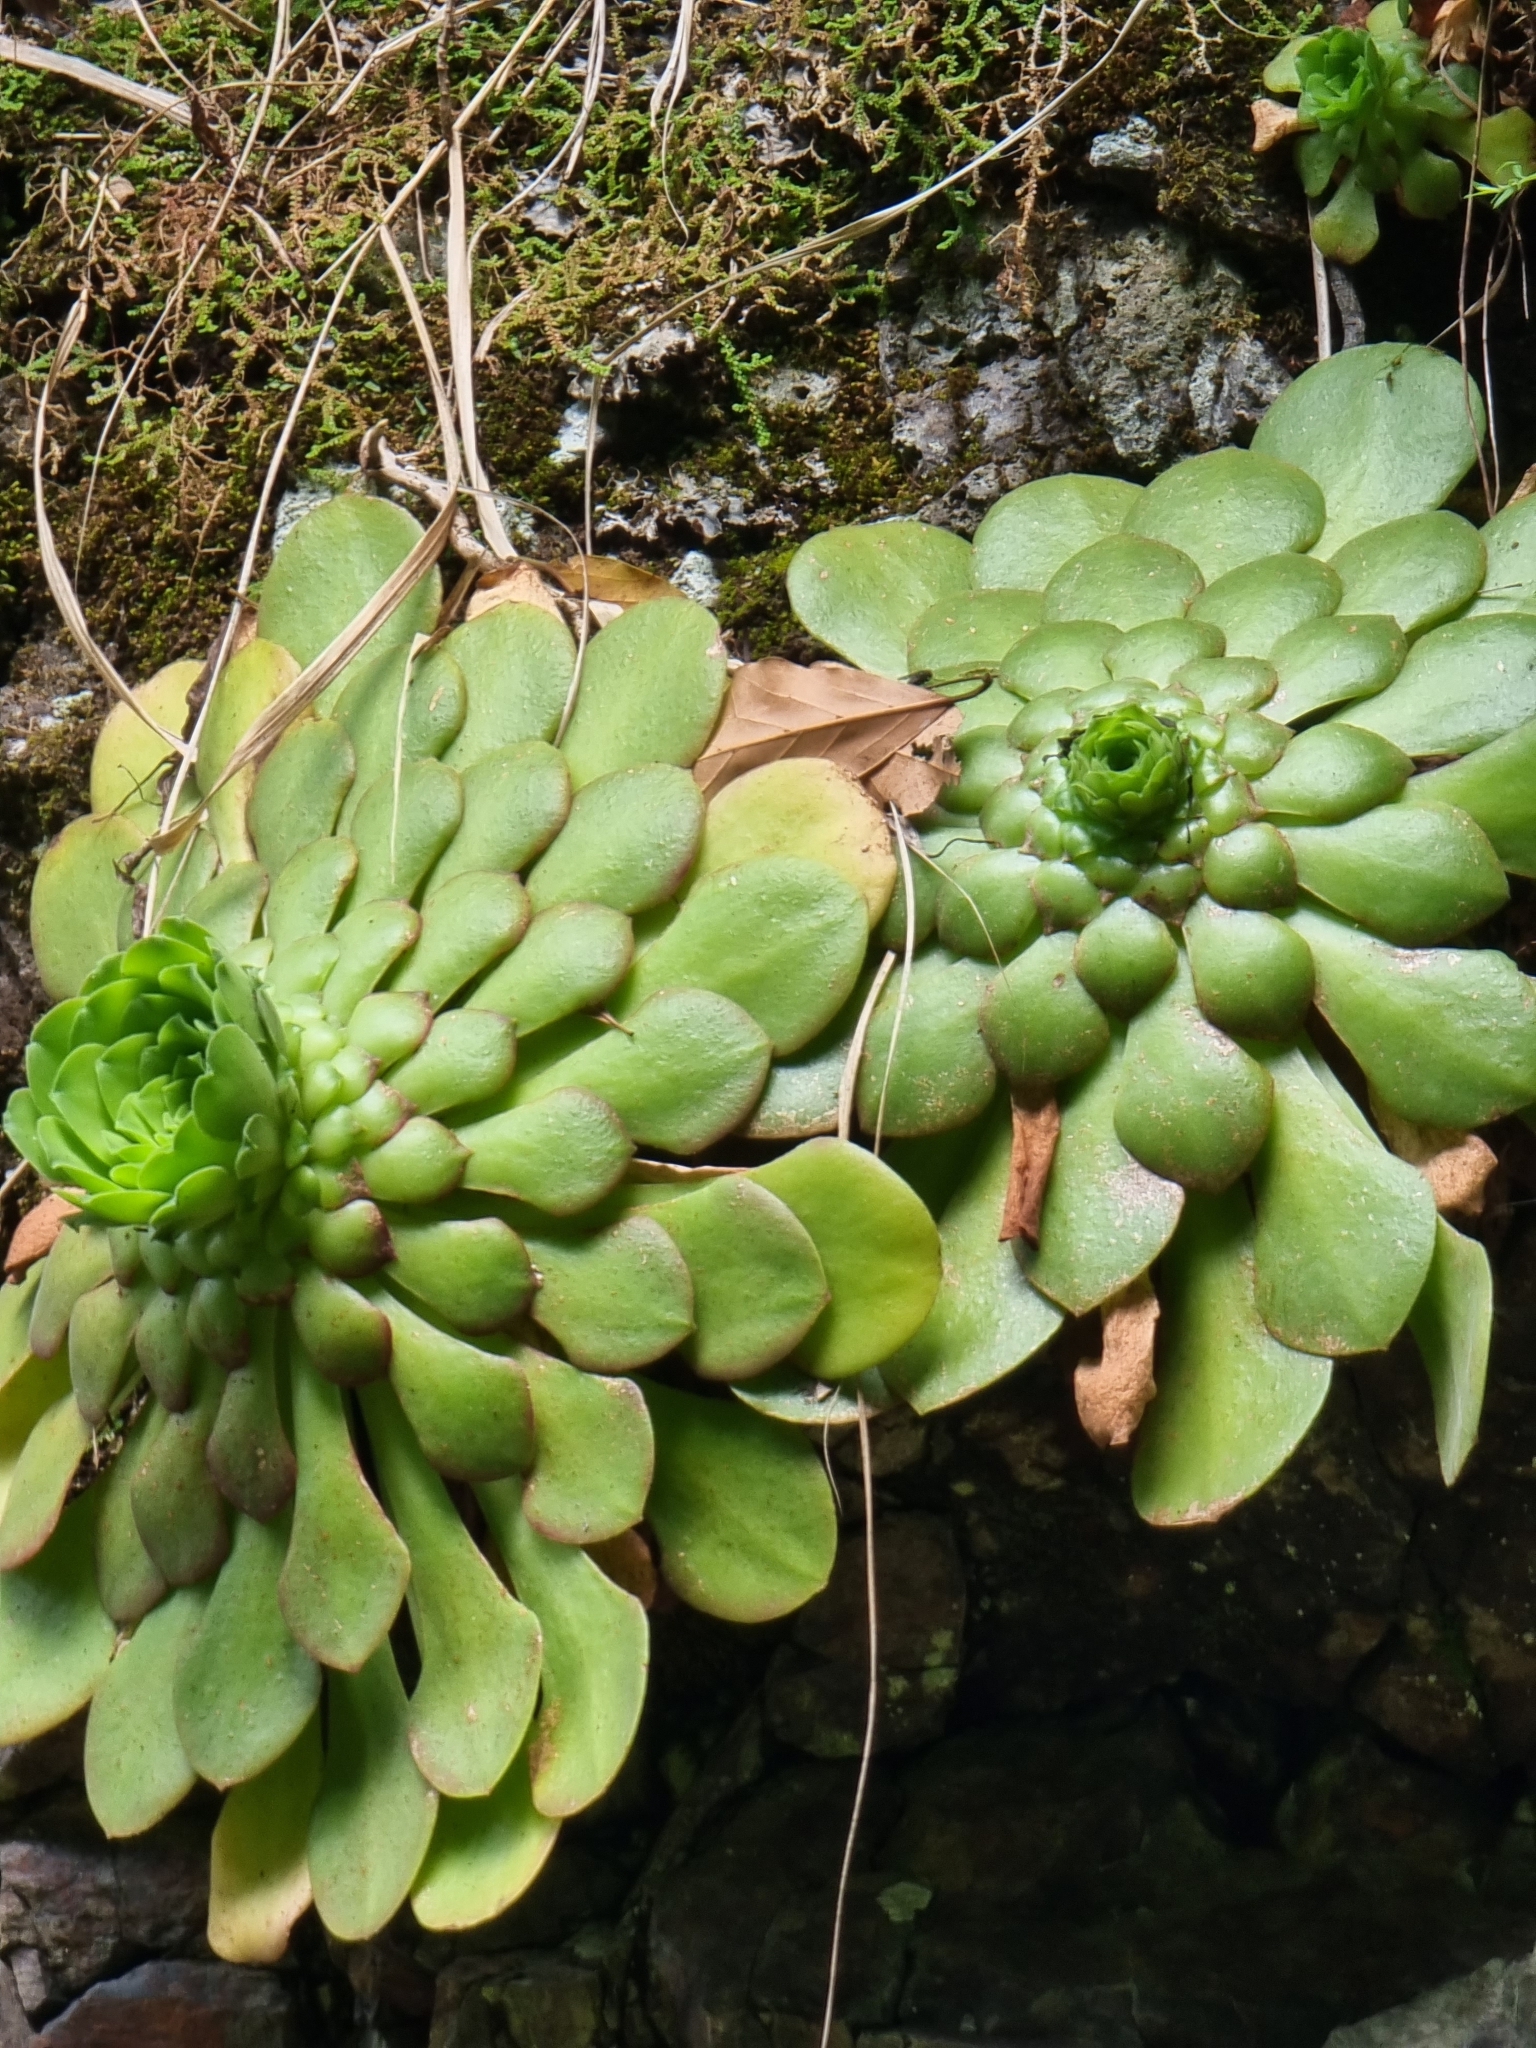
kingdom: Plantae
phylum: Tracheophyta
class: Magnoliopsida
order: Saxifragales
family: Crassulaceae
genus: Aeonium
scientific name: Aeonium glandulosum
